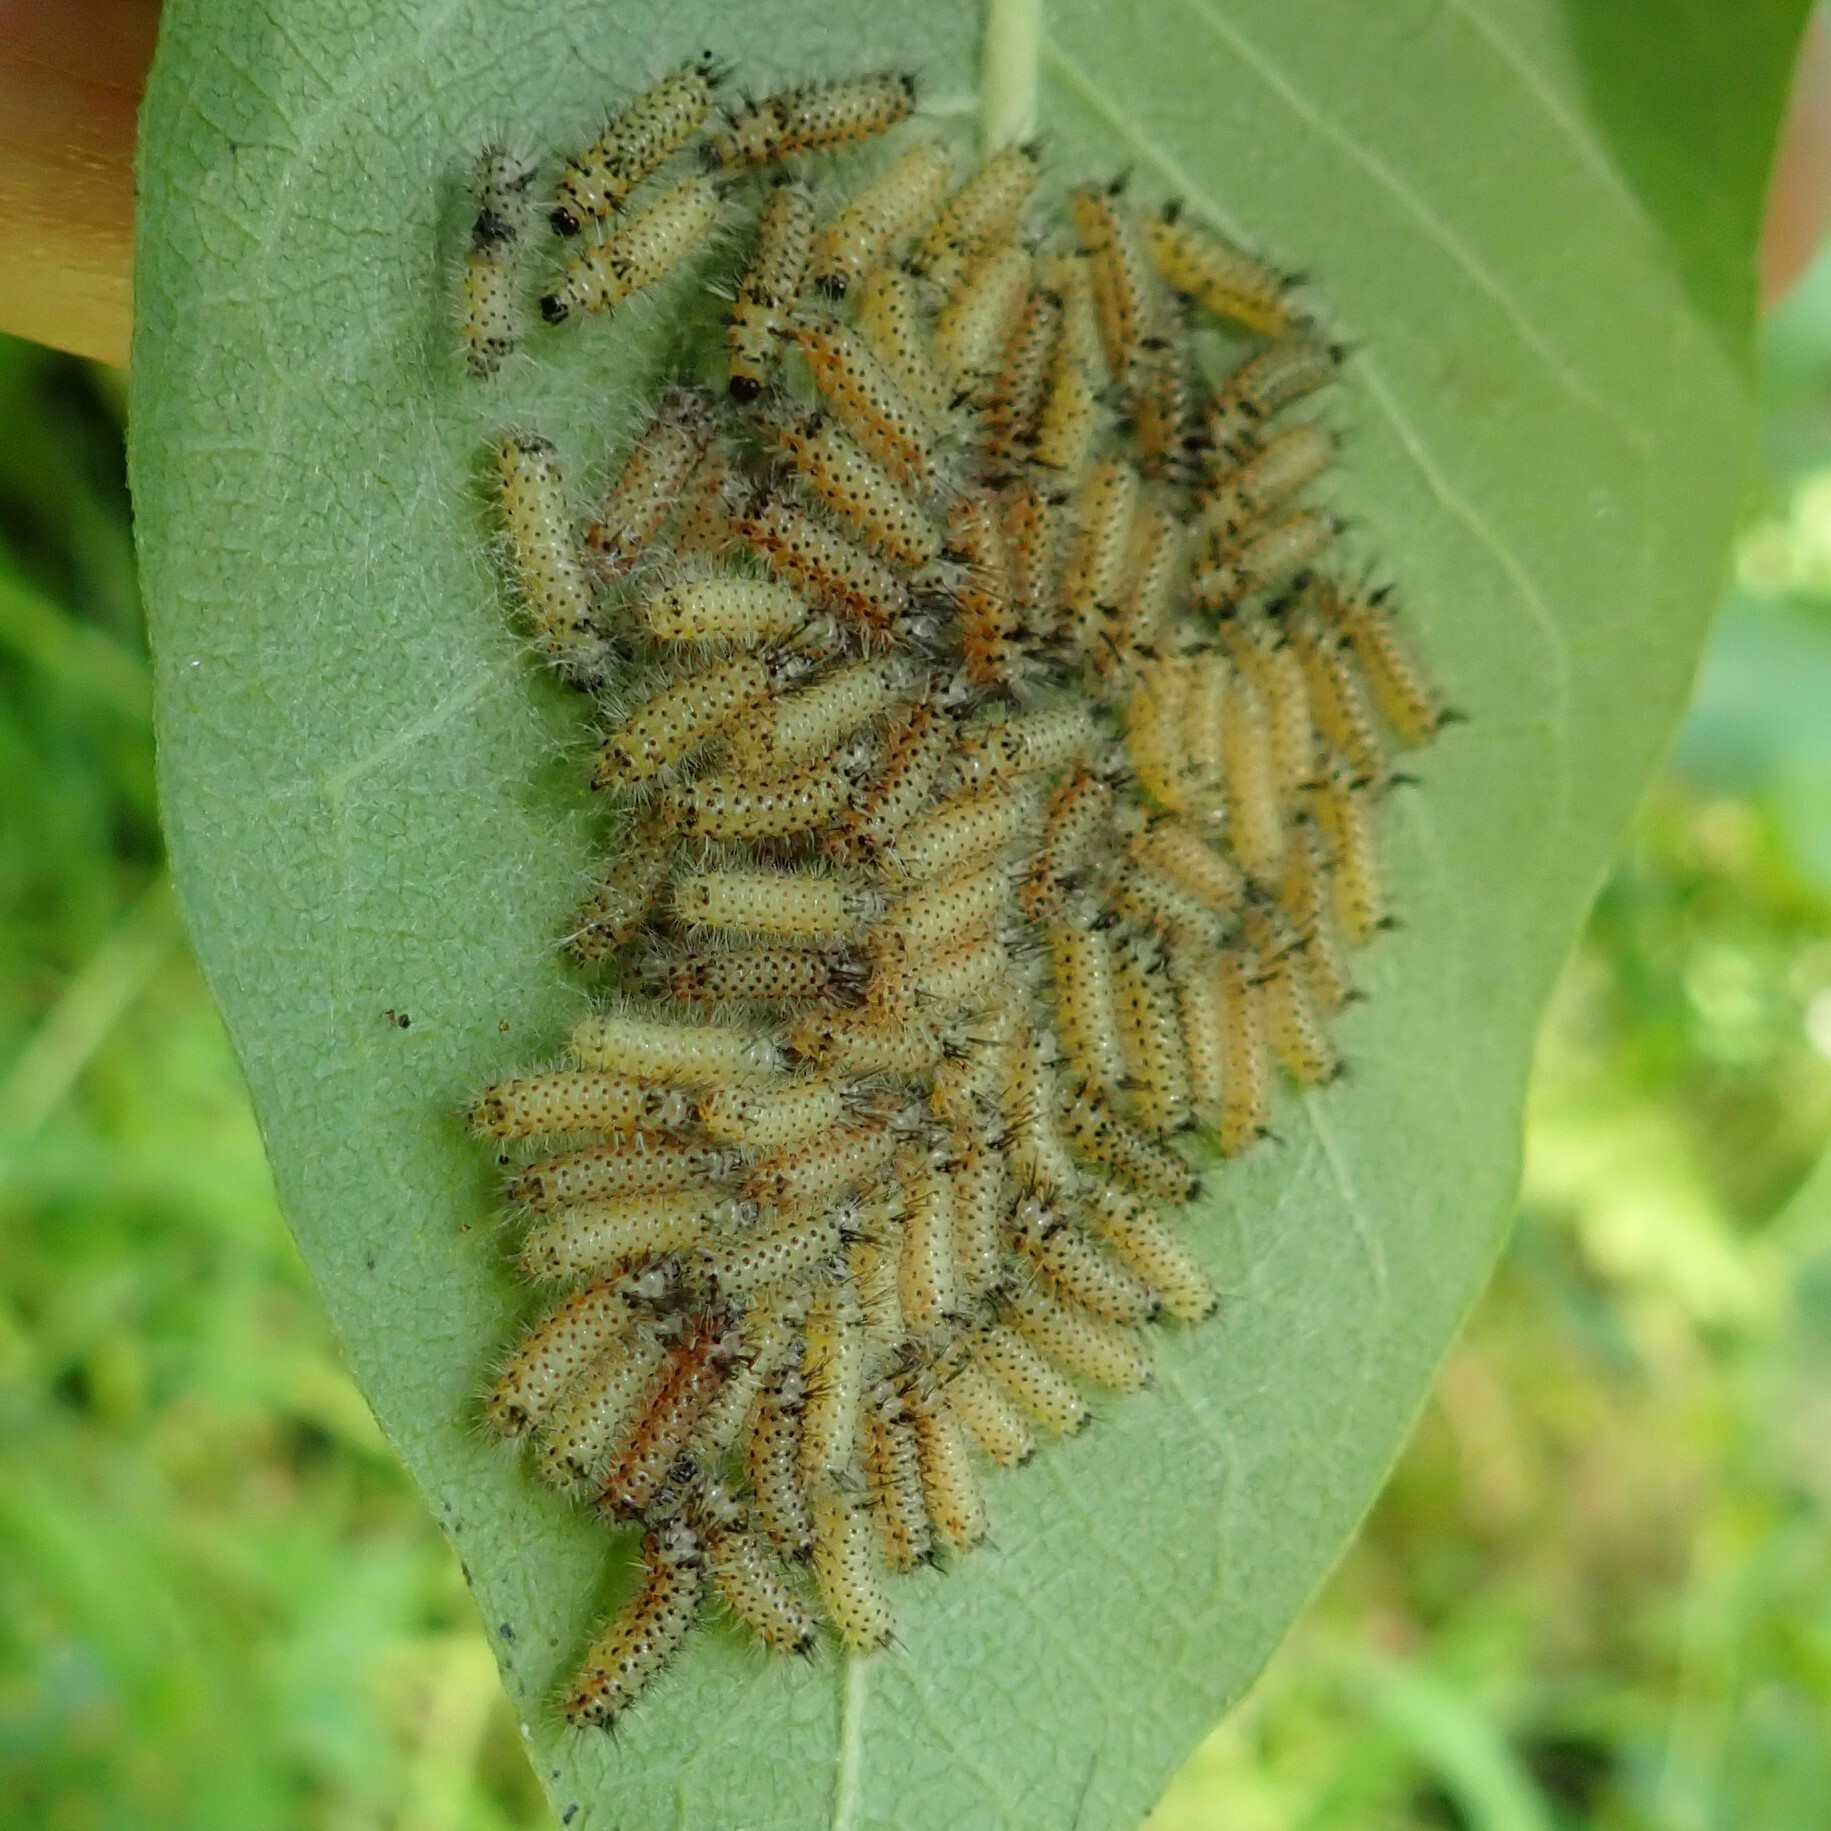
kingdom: Animalia
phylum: Arthropoda
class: Insecta
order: Lepidoptera
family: Erebidae
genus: Euchaetes
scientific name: Euchaetes egle
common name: Milkweed tussock moth
